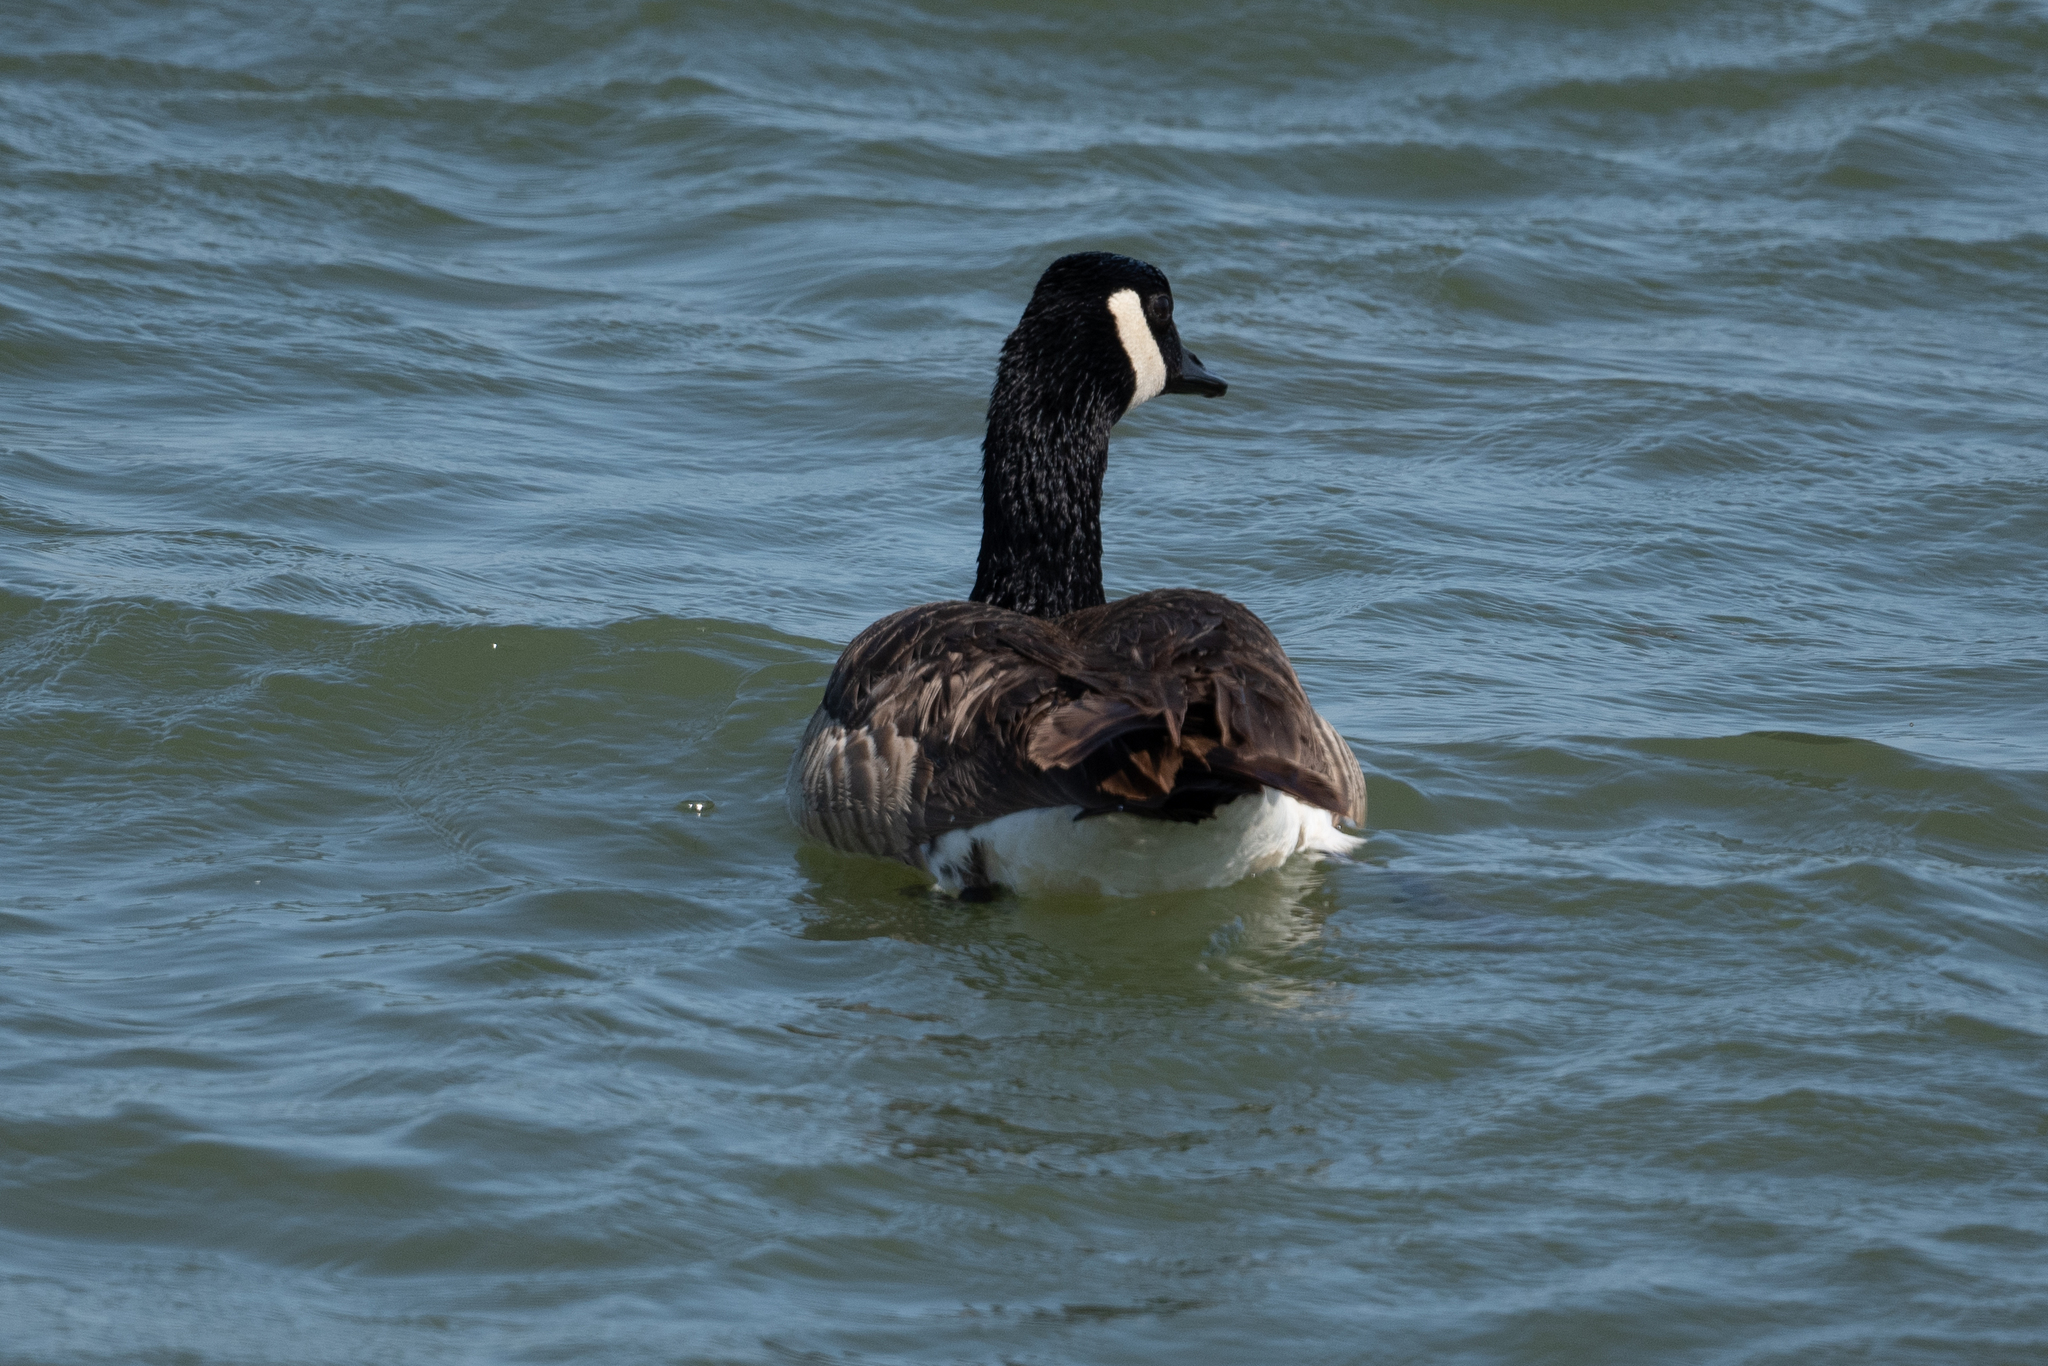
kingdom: Animalia
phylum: Chordata
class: Aves
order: Anseriformes
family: Anatidae
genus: Branta
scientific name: Branta canadensis
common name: Canada goose
